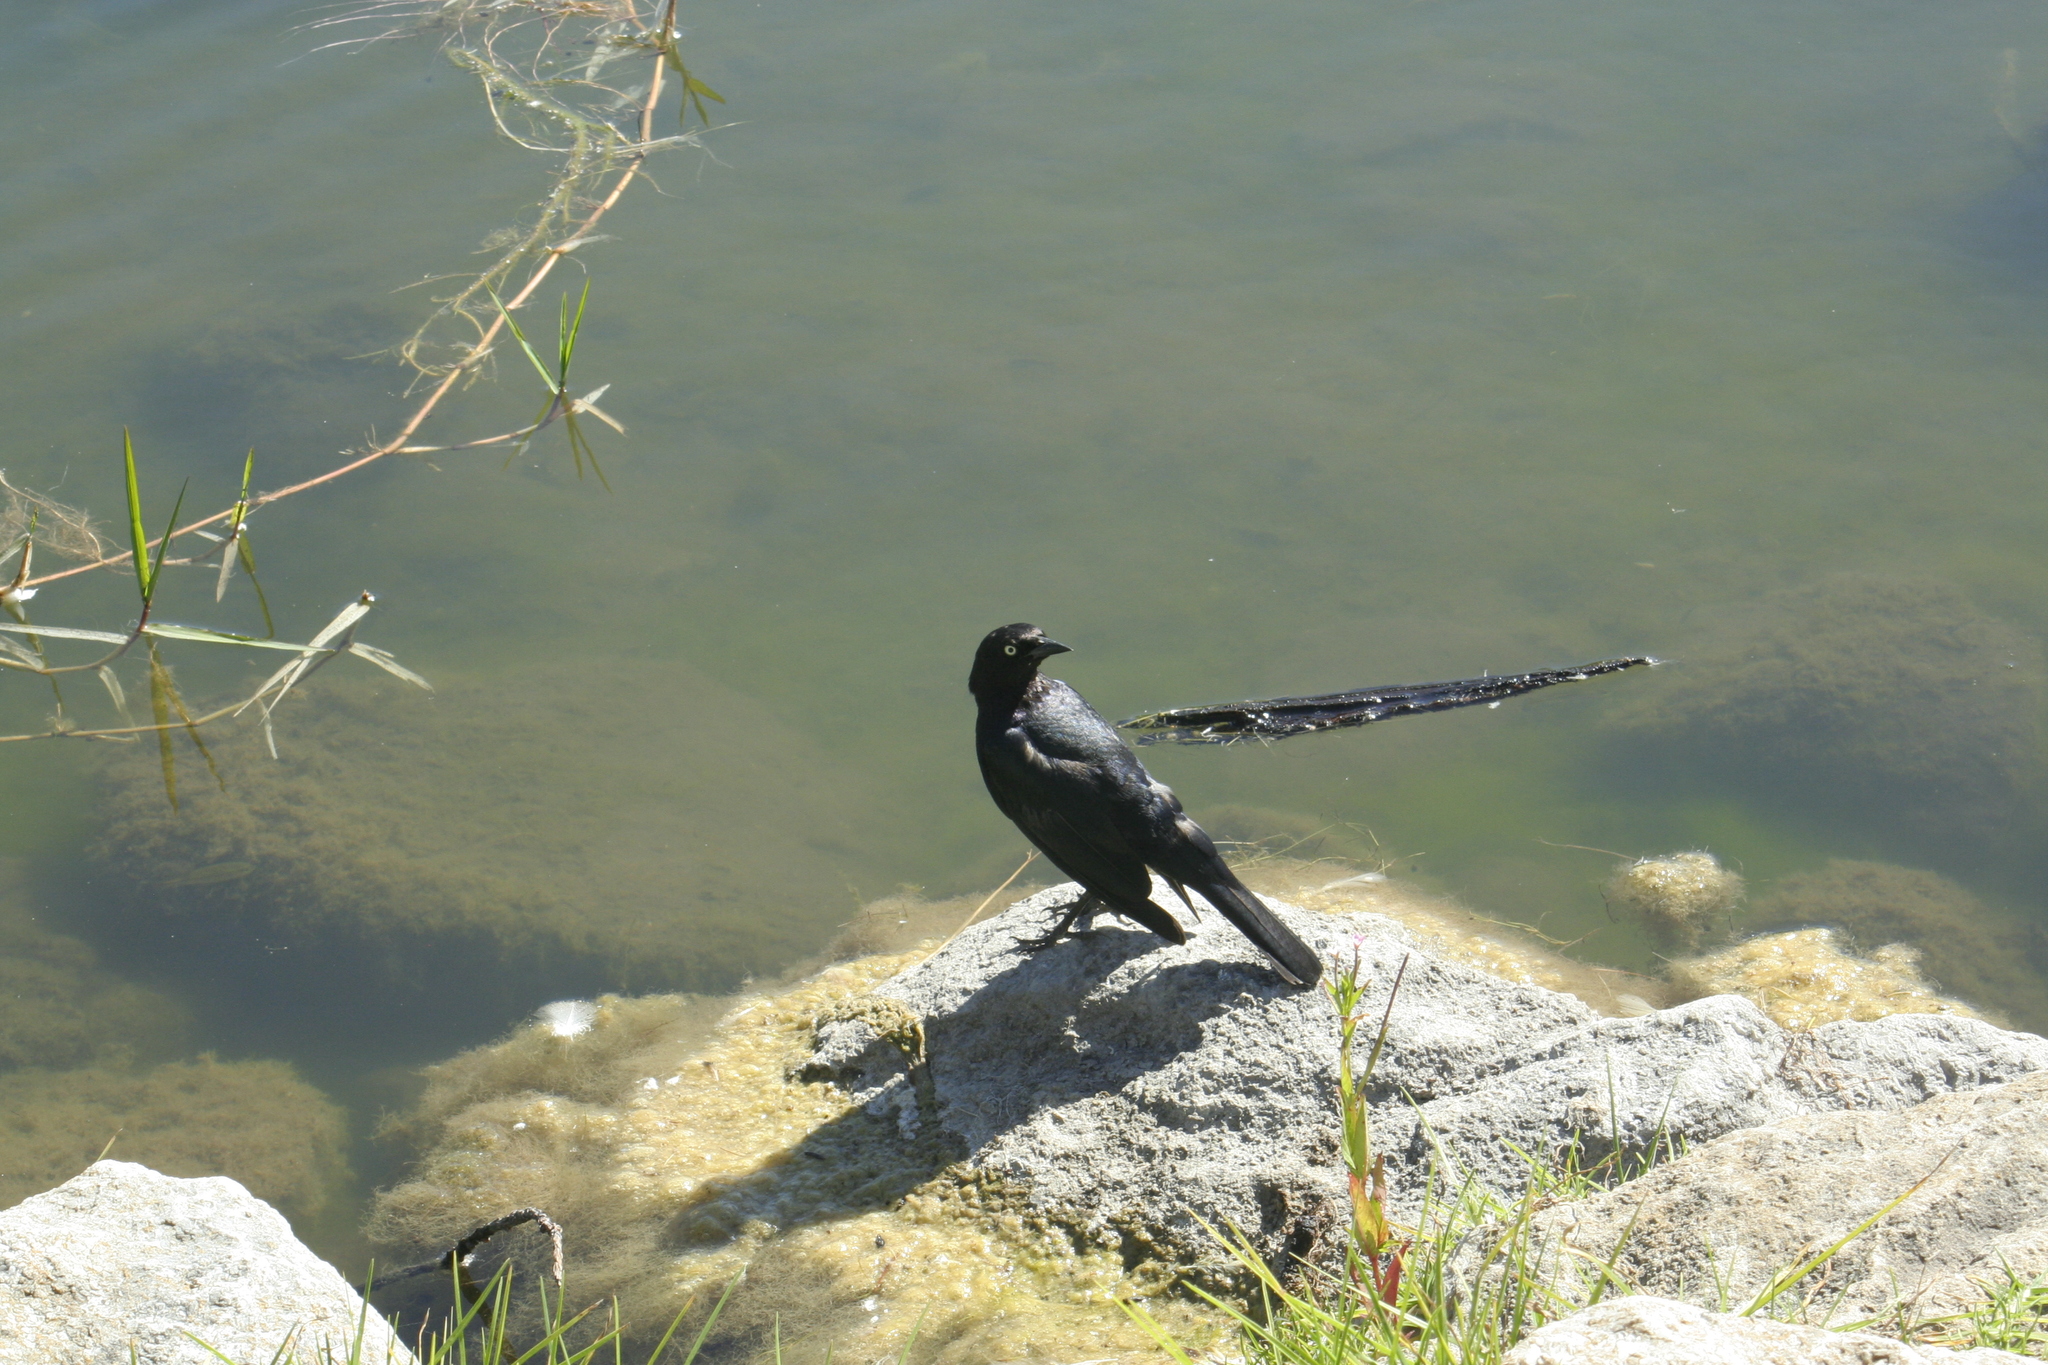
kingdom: Animalia
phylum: Chordata
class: Aves
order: Passeriformes
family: Icteridae
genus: Euphagus
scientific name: Euphagus cyanocephalus
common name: Brewer's blackbird
